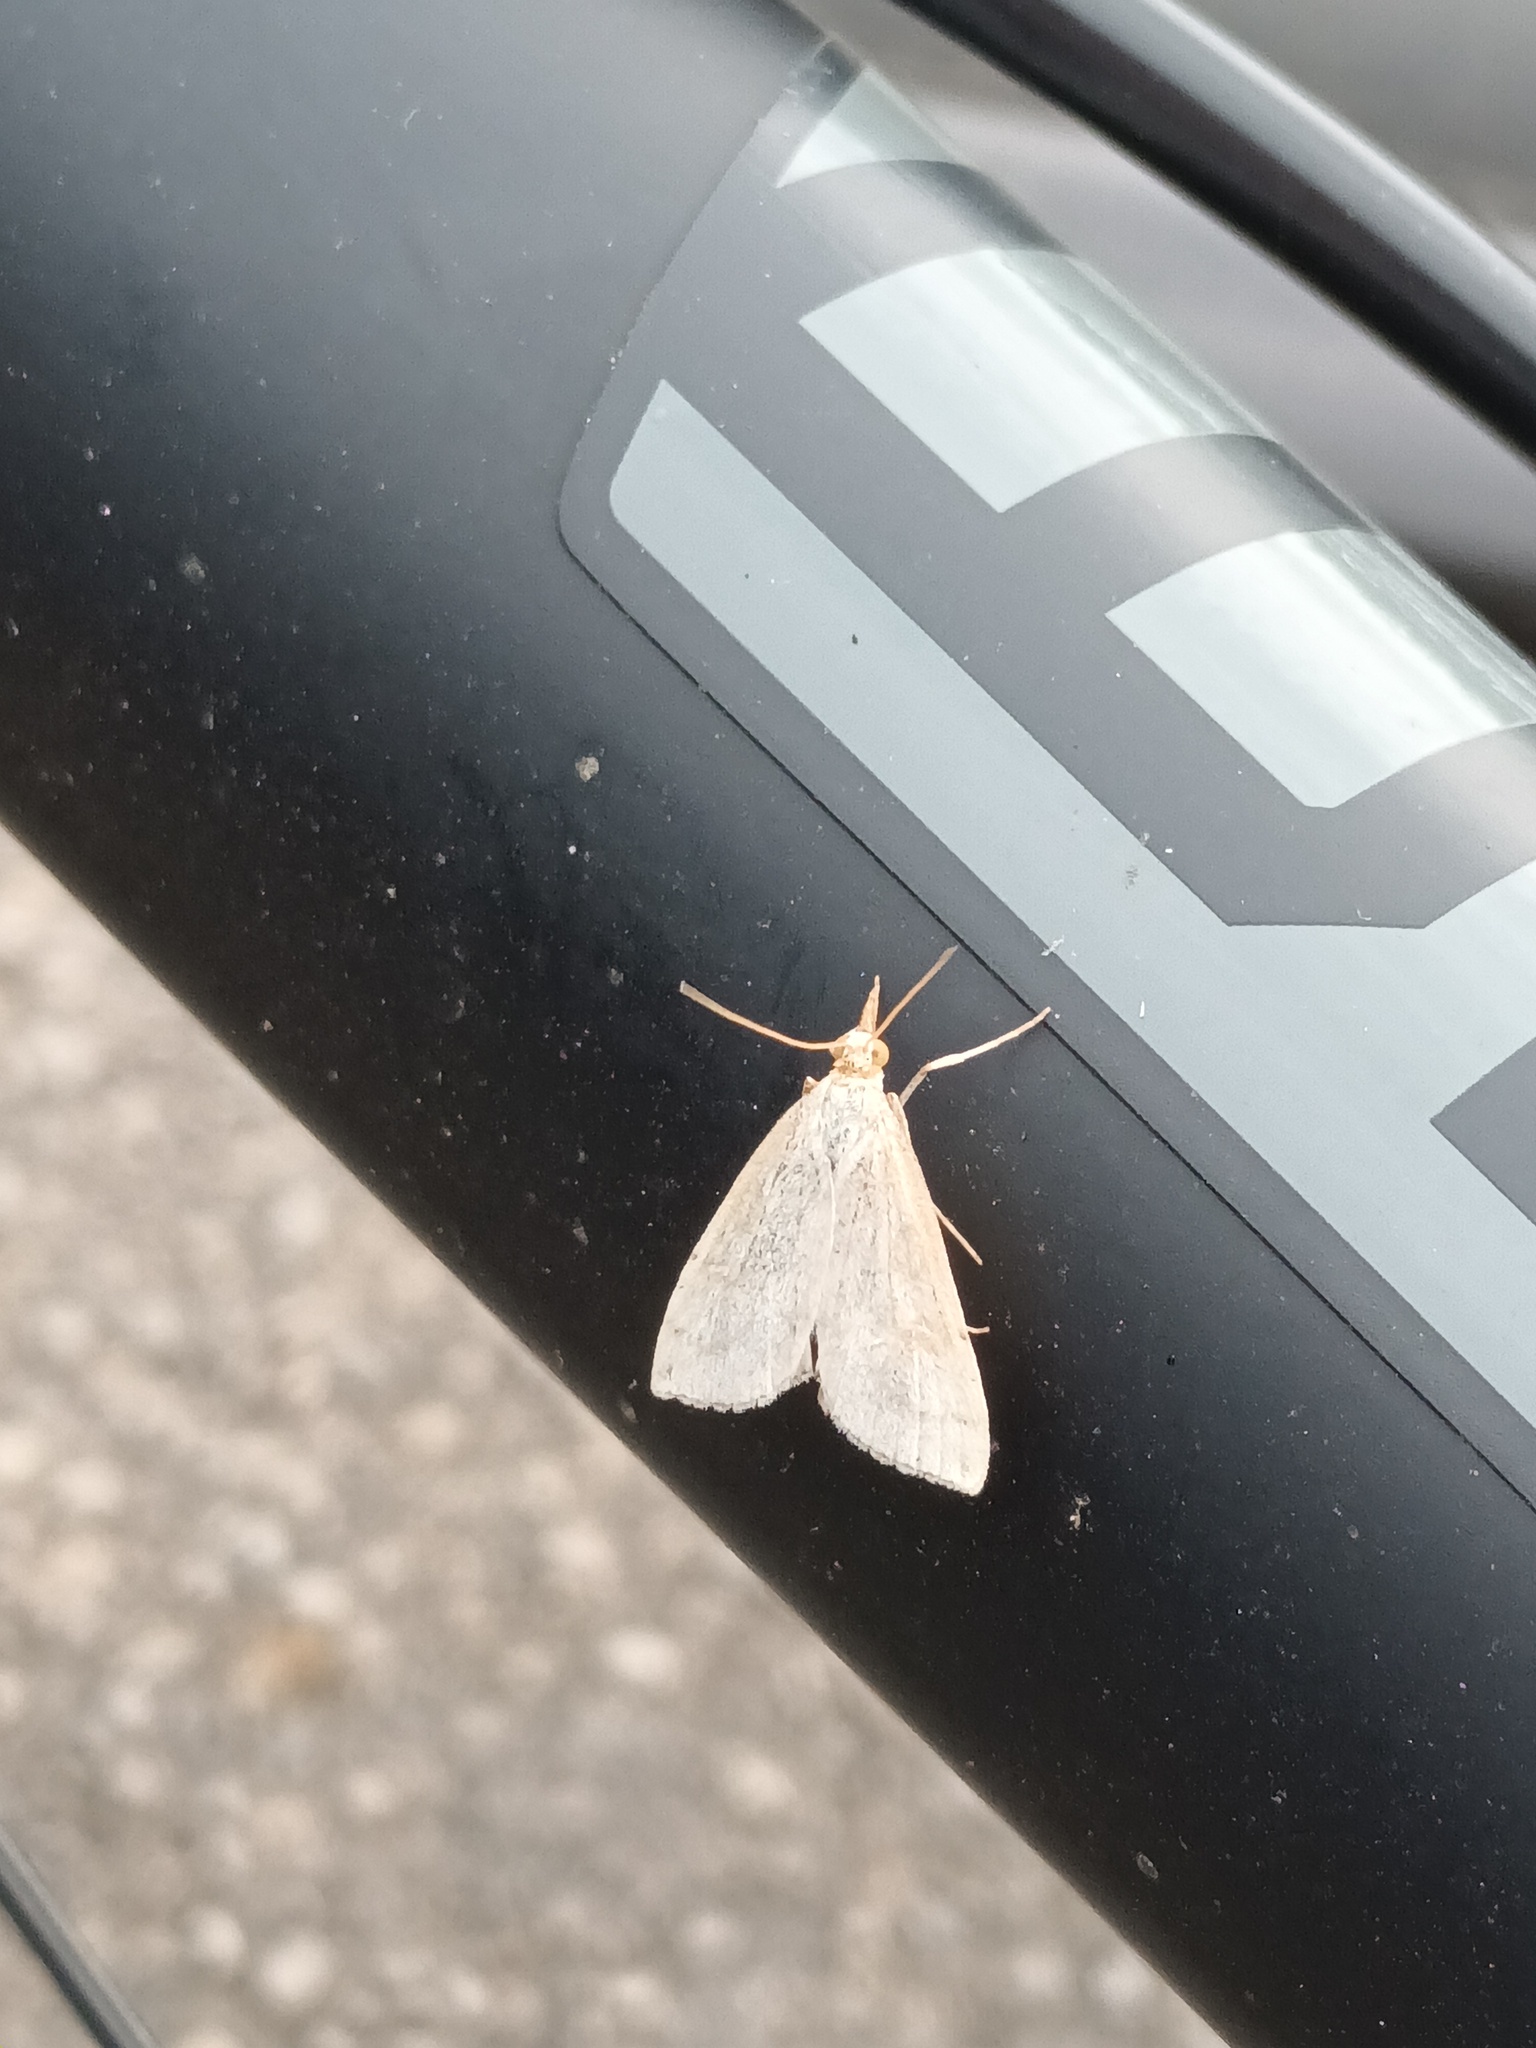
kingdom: Animalia
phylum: Arthropoda
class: Insecta
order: Lepidoptera
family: Crambidae
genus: Udea
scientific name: Udea lutealis
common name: Pale straw pearl
